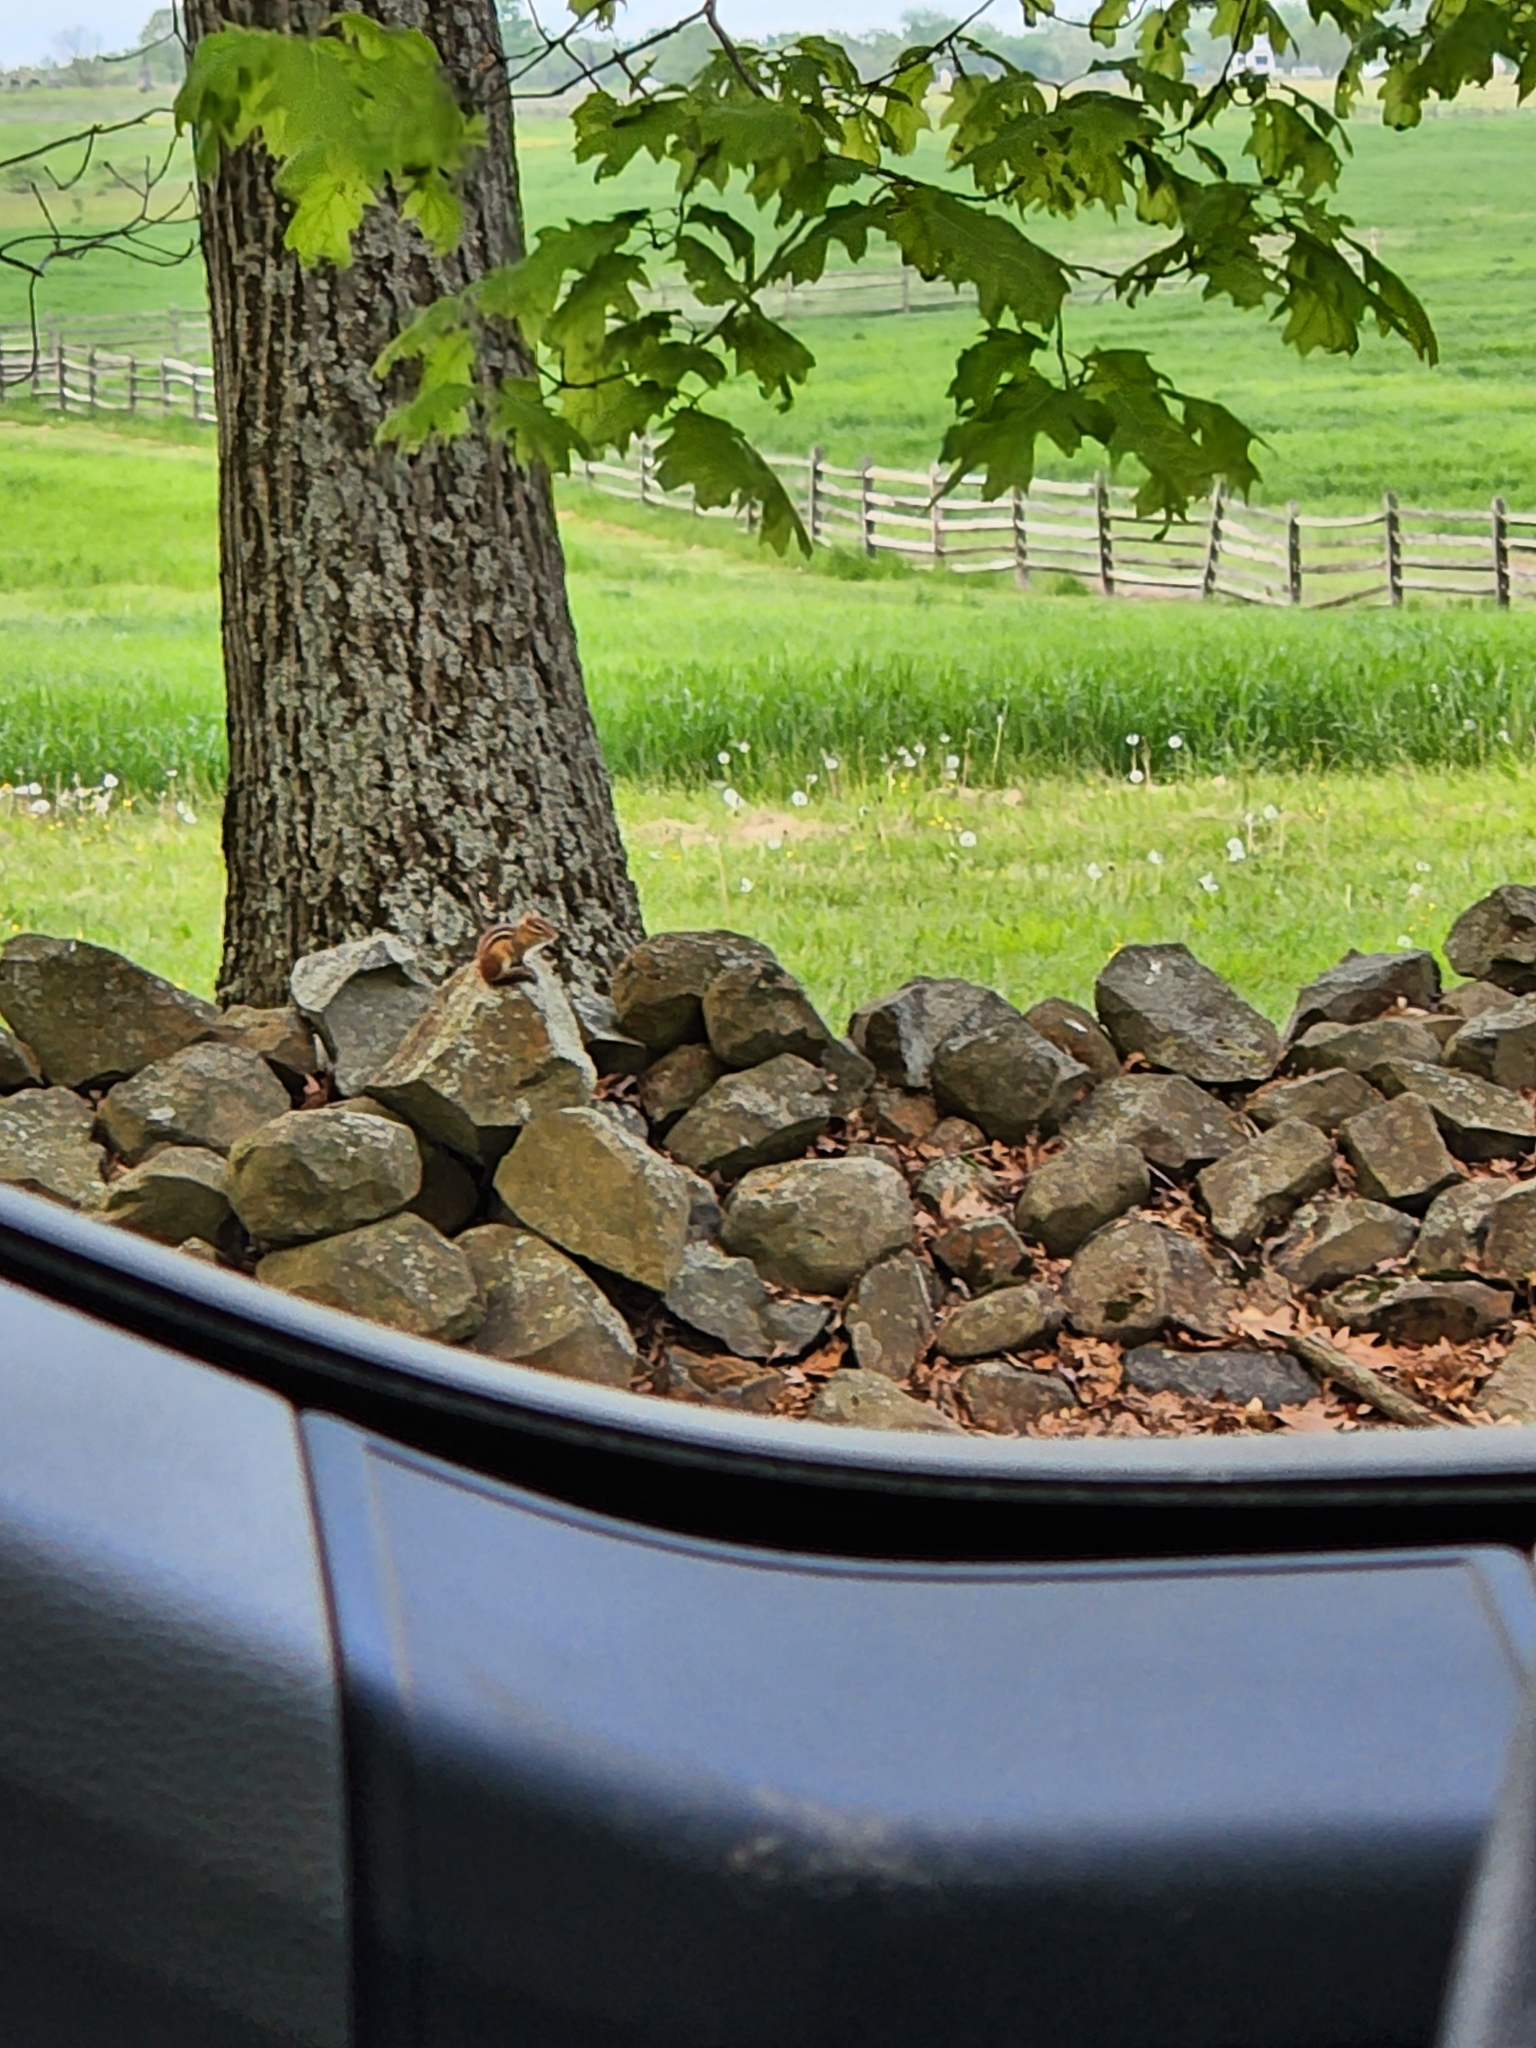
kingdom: Animalia
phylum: Chordata
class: Mammalia
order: Rodentia
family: Sciuridae
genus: Tamias
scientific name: Tamias striatus
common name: Eastern chipmunk
